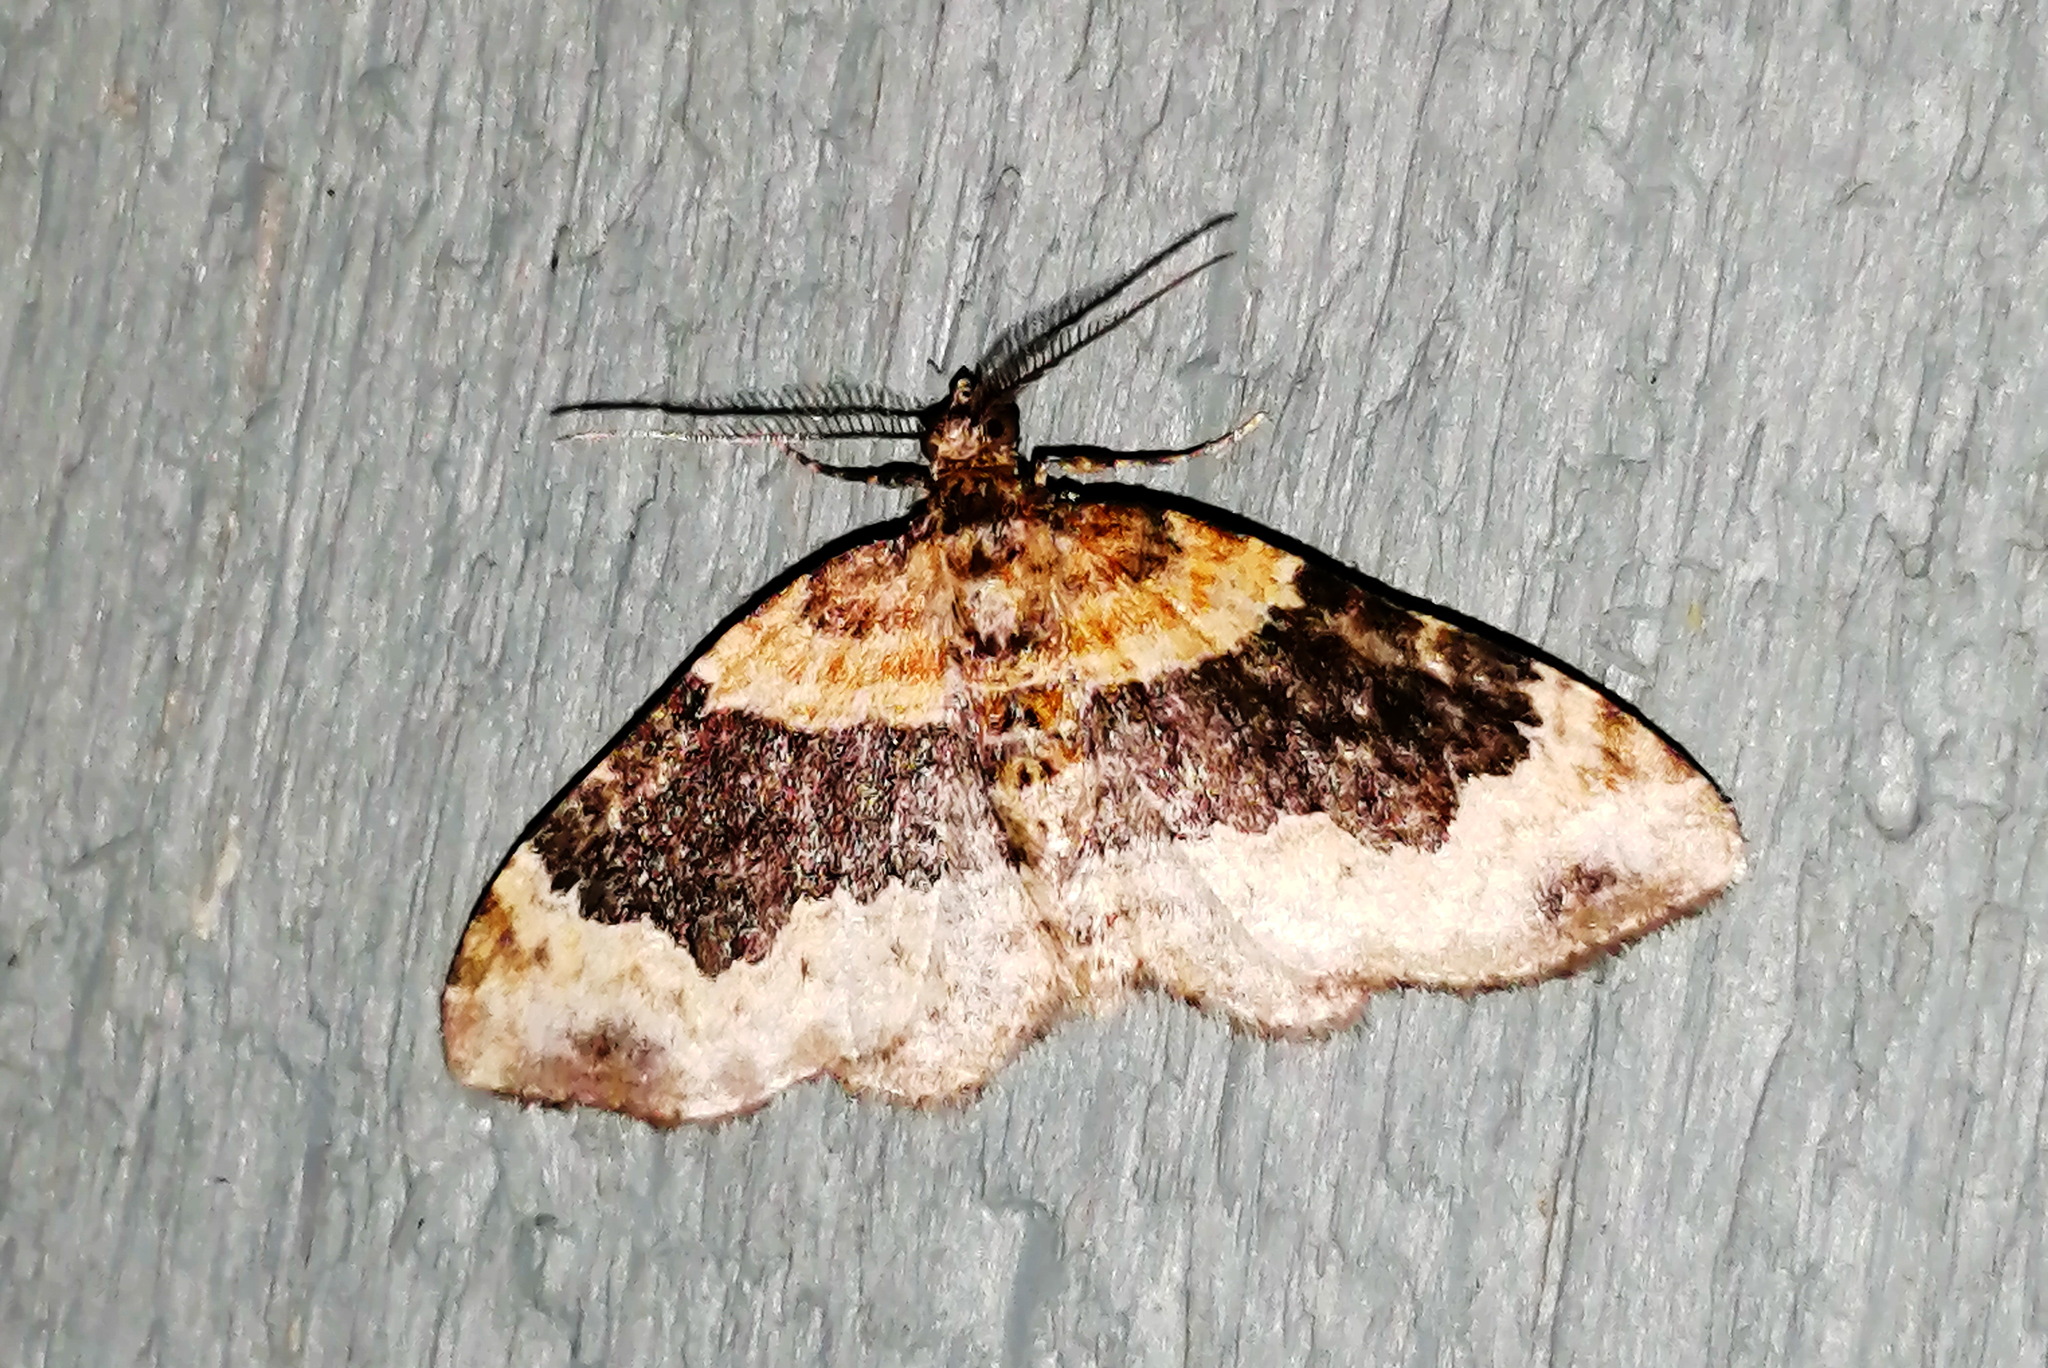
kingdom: Animalia
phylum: Arthropoda
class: Insecta
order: Lepidoptera
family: Geometridae
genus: Xanthorhoe
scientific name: Xanthorhoe ferrugata
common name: Dark-barred twin-spot carpet
